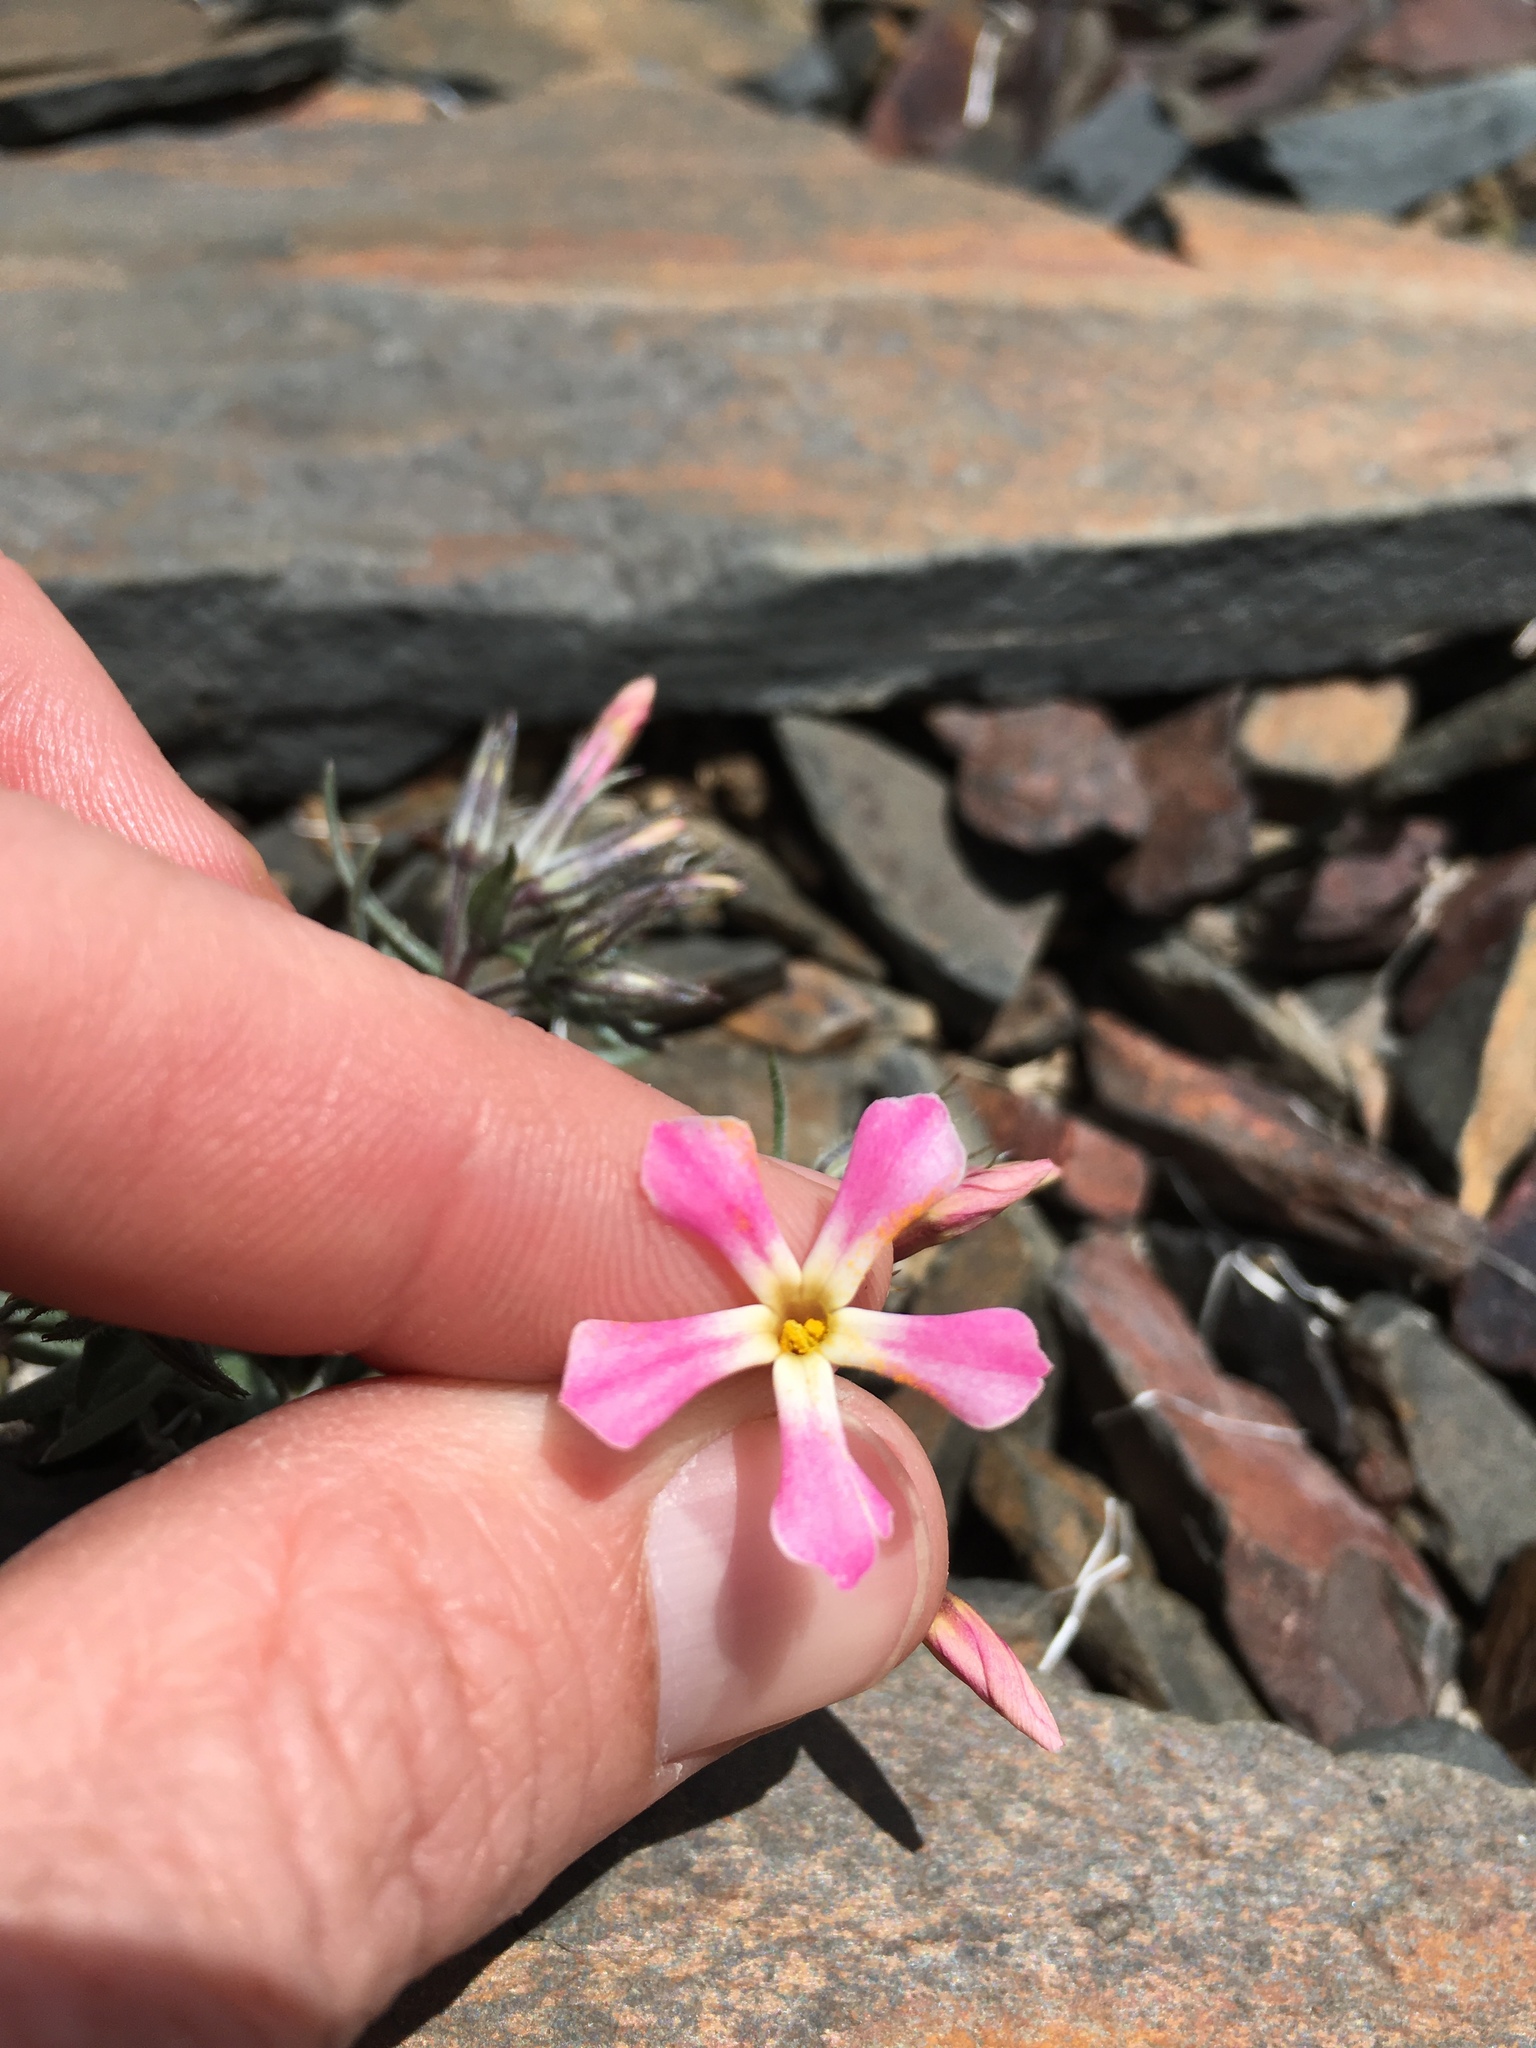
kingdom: Plantae
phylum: Tracheophyta
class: Magnoliopsida
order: Ericales
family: Polemoniaceae
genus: Phlox
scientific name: Phlox longifolia
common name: Longleaf phlox
